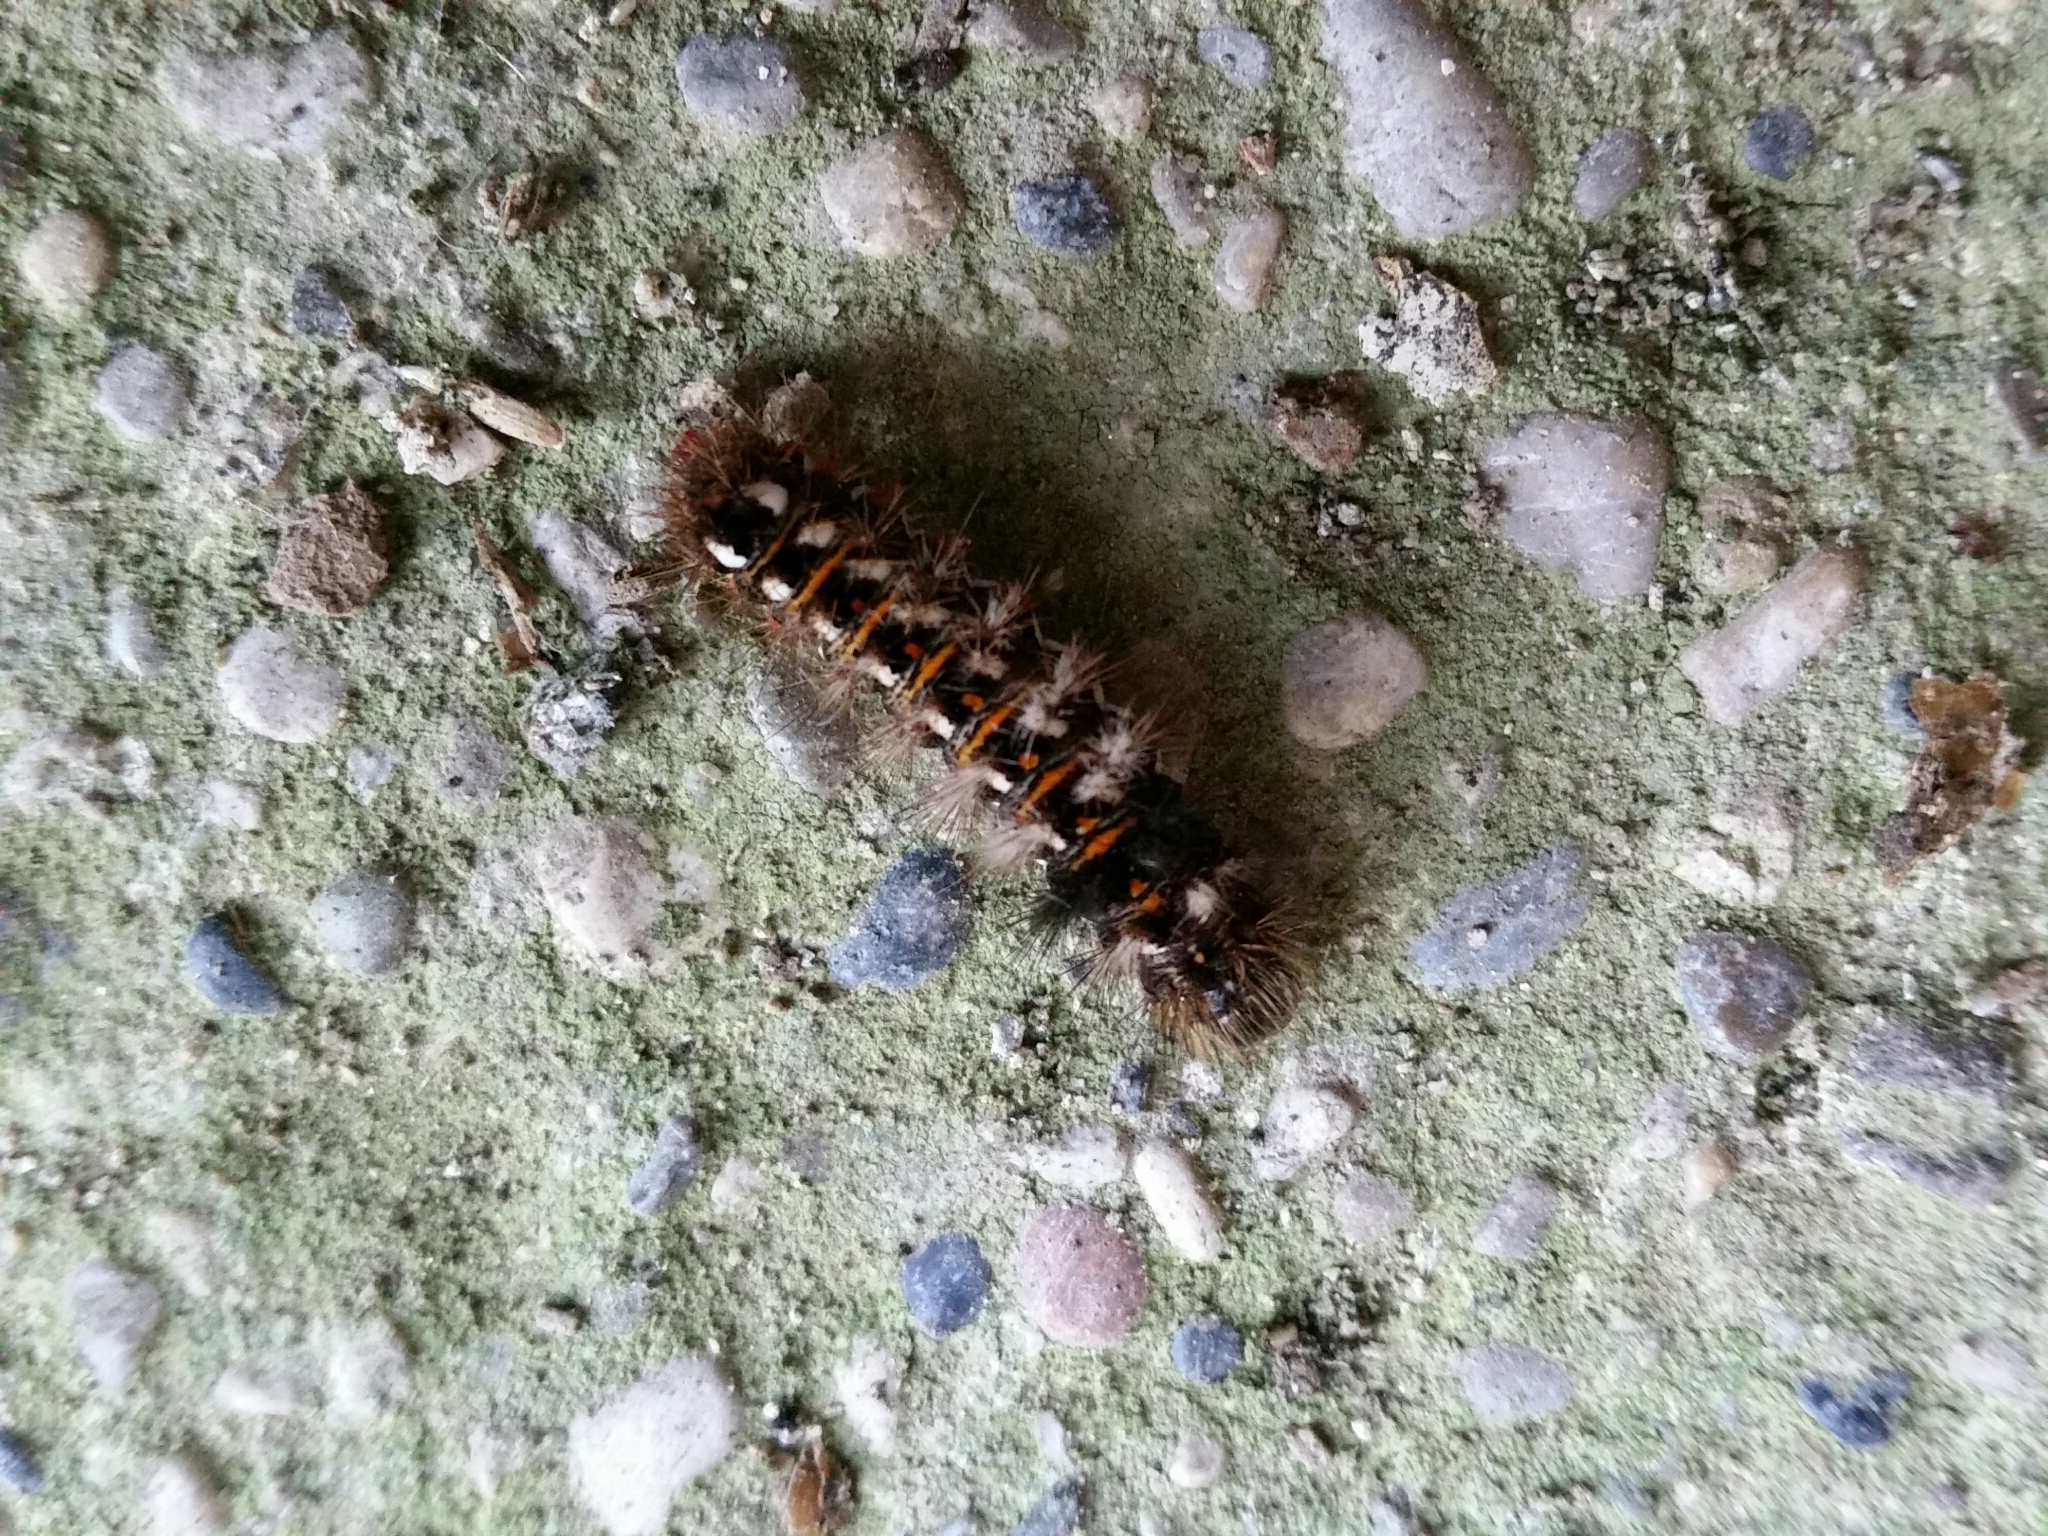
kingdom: Animalia
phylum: Arthropoda
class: Insecta
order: Lepidoptera
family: Noctuidae
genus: Acronicta
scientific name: Acronicta rumicis
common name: Knot grass
